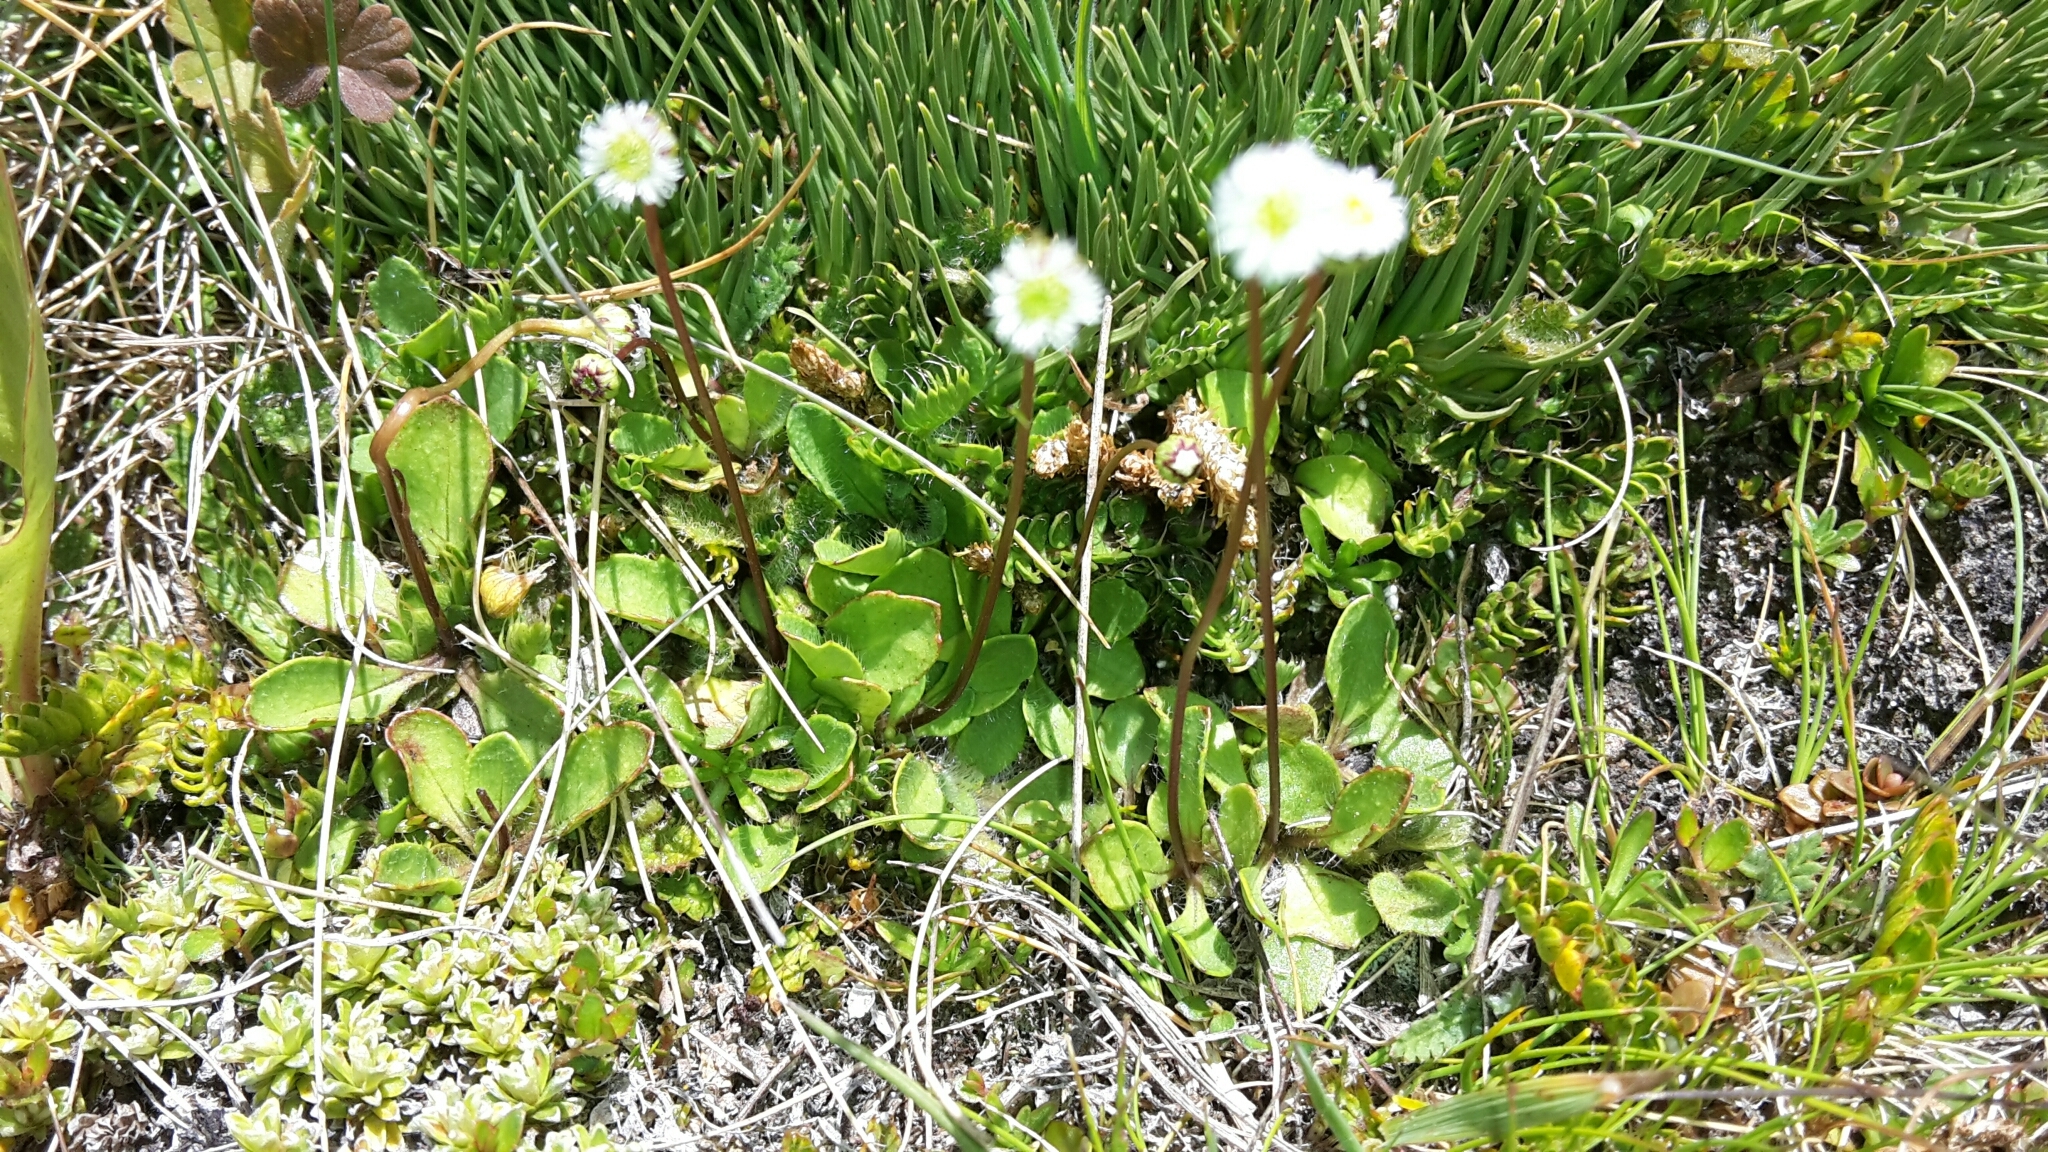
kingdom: Plantae
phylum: Tracheophyta
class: Magnoliopsida
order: Asterales
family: Asteraceae
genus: Lagenophora
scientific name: Lagenophora cuneata
